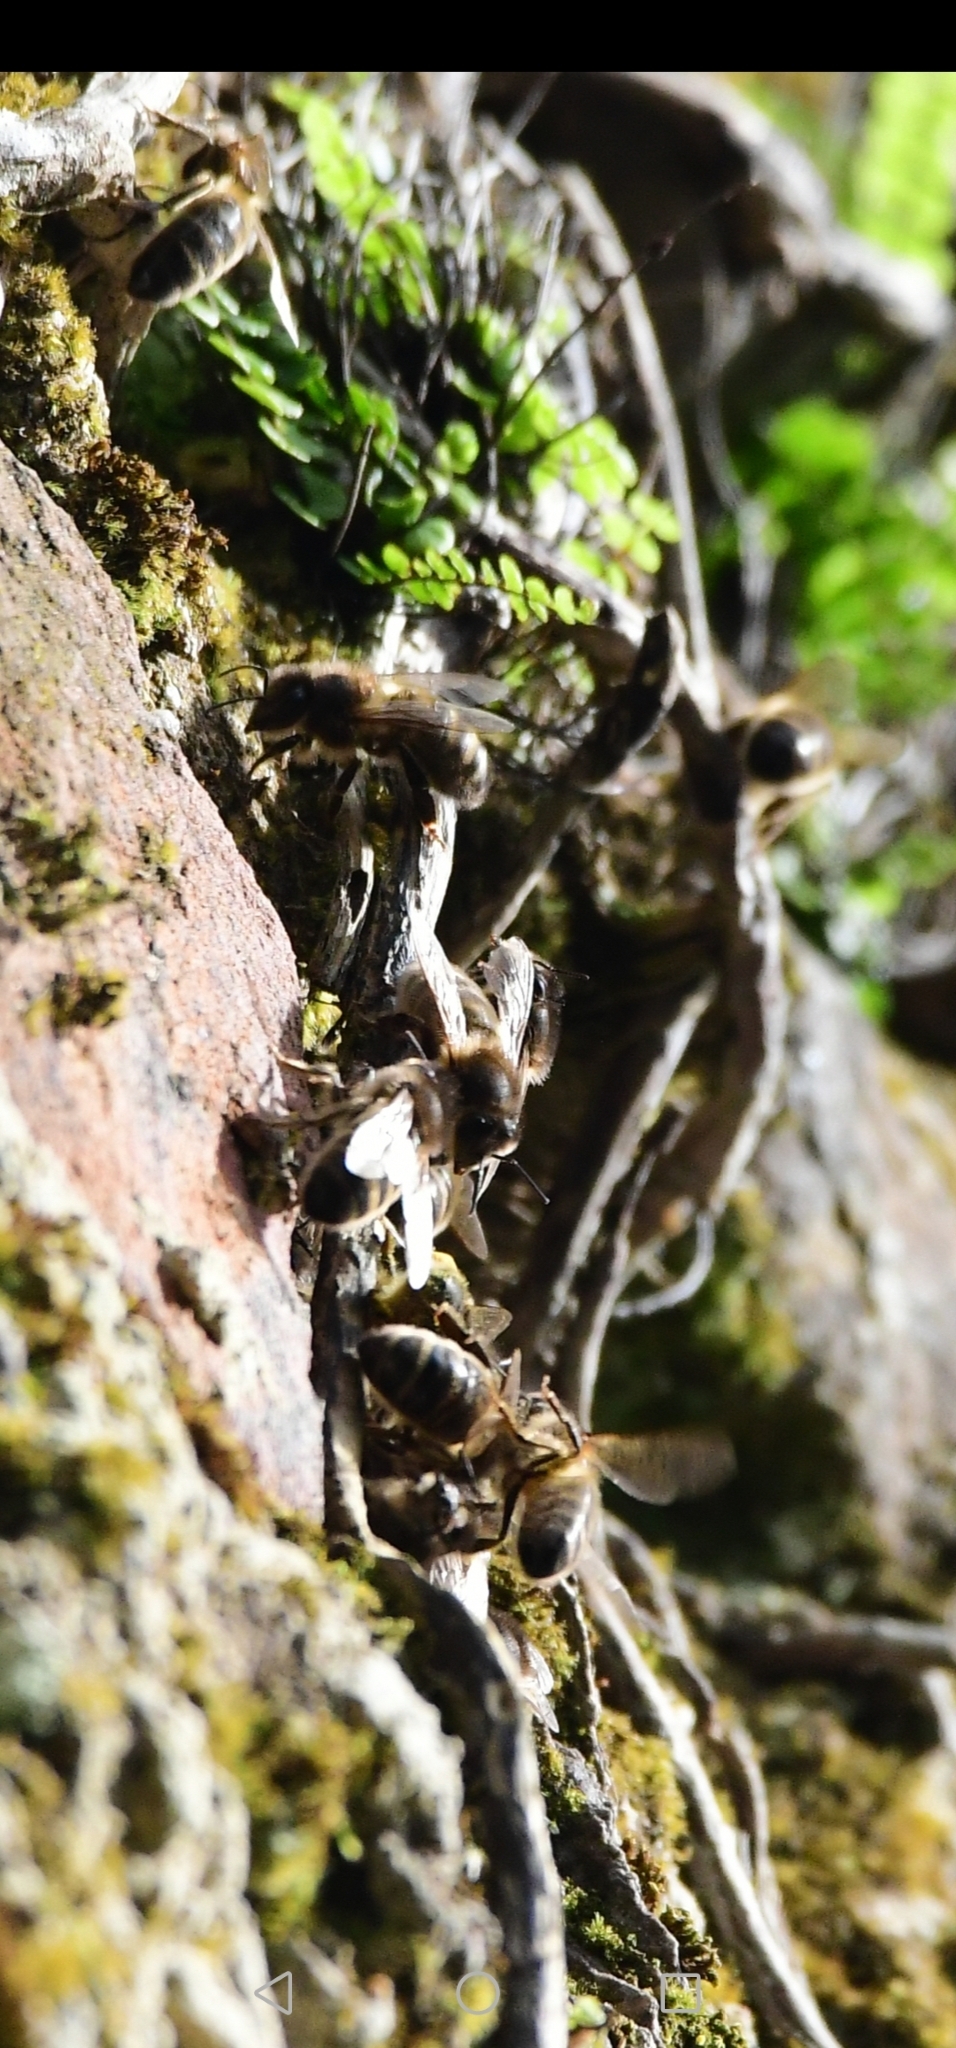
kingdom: Animalia
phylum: Arthropoda
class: Insecta
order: Hymenoptera
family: Apidae
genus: Apis
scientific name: Apis mellifera
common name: Honey bee
